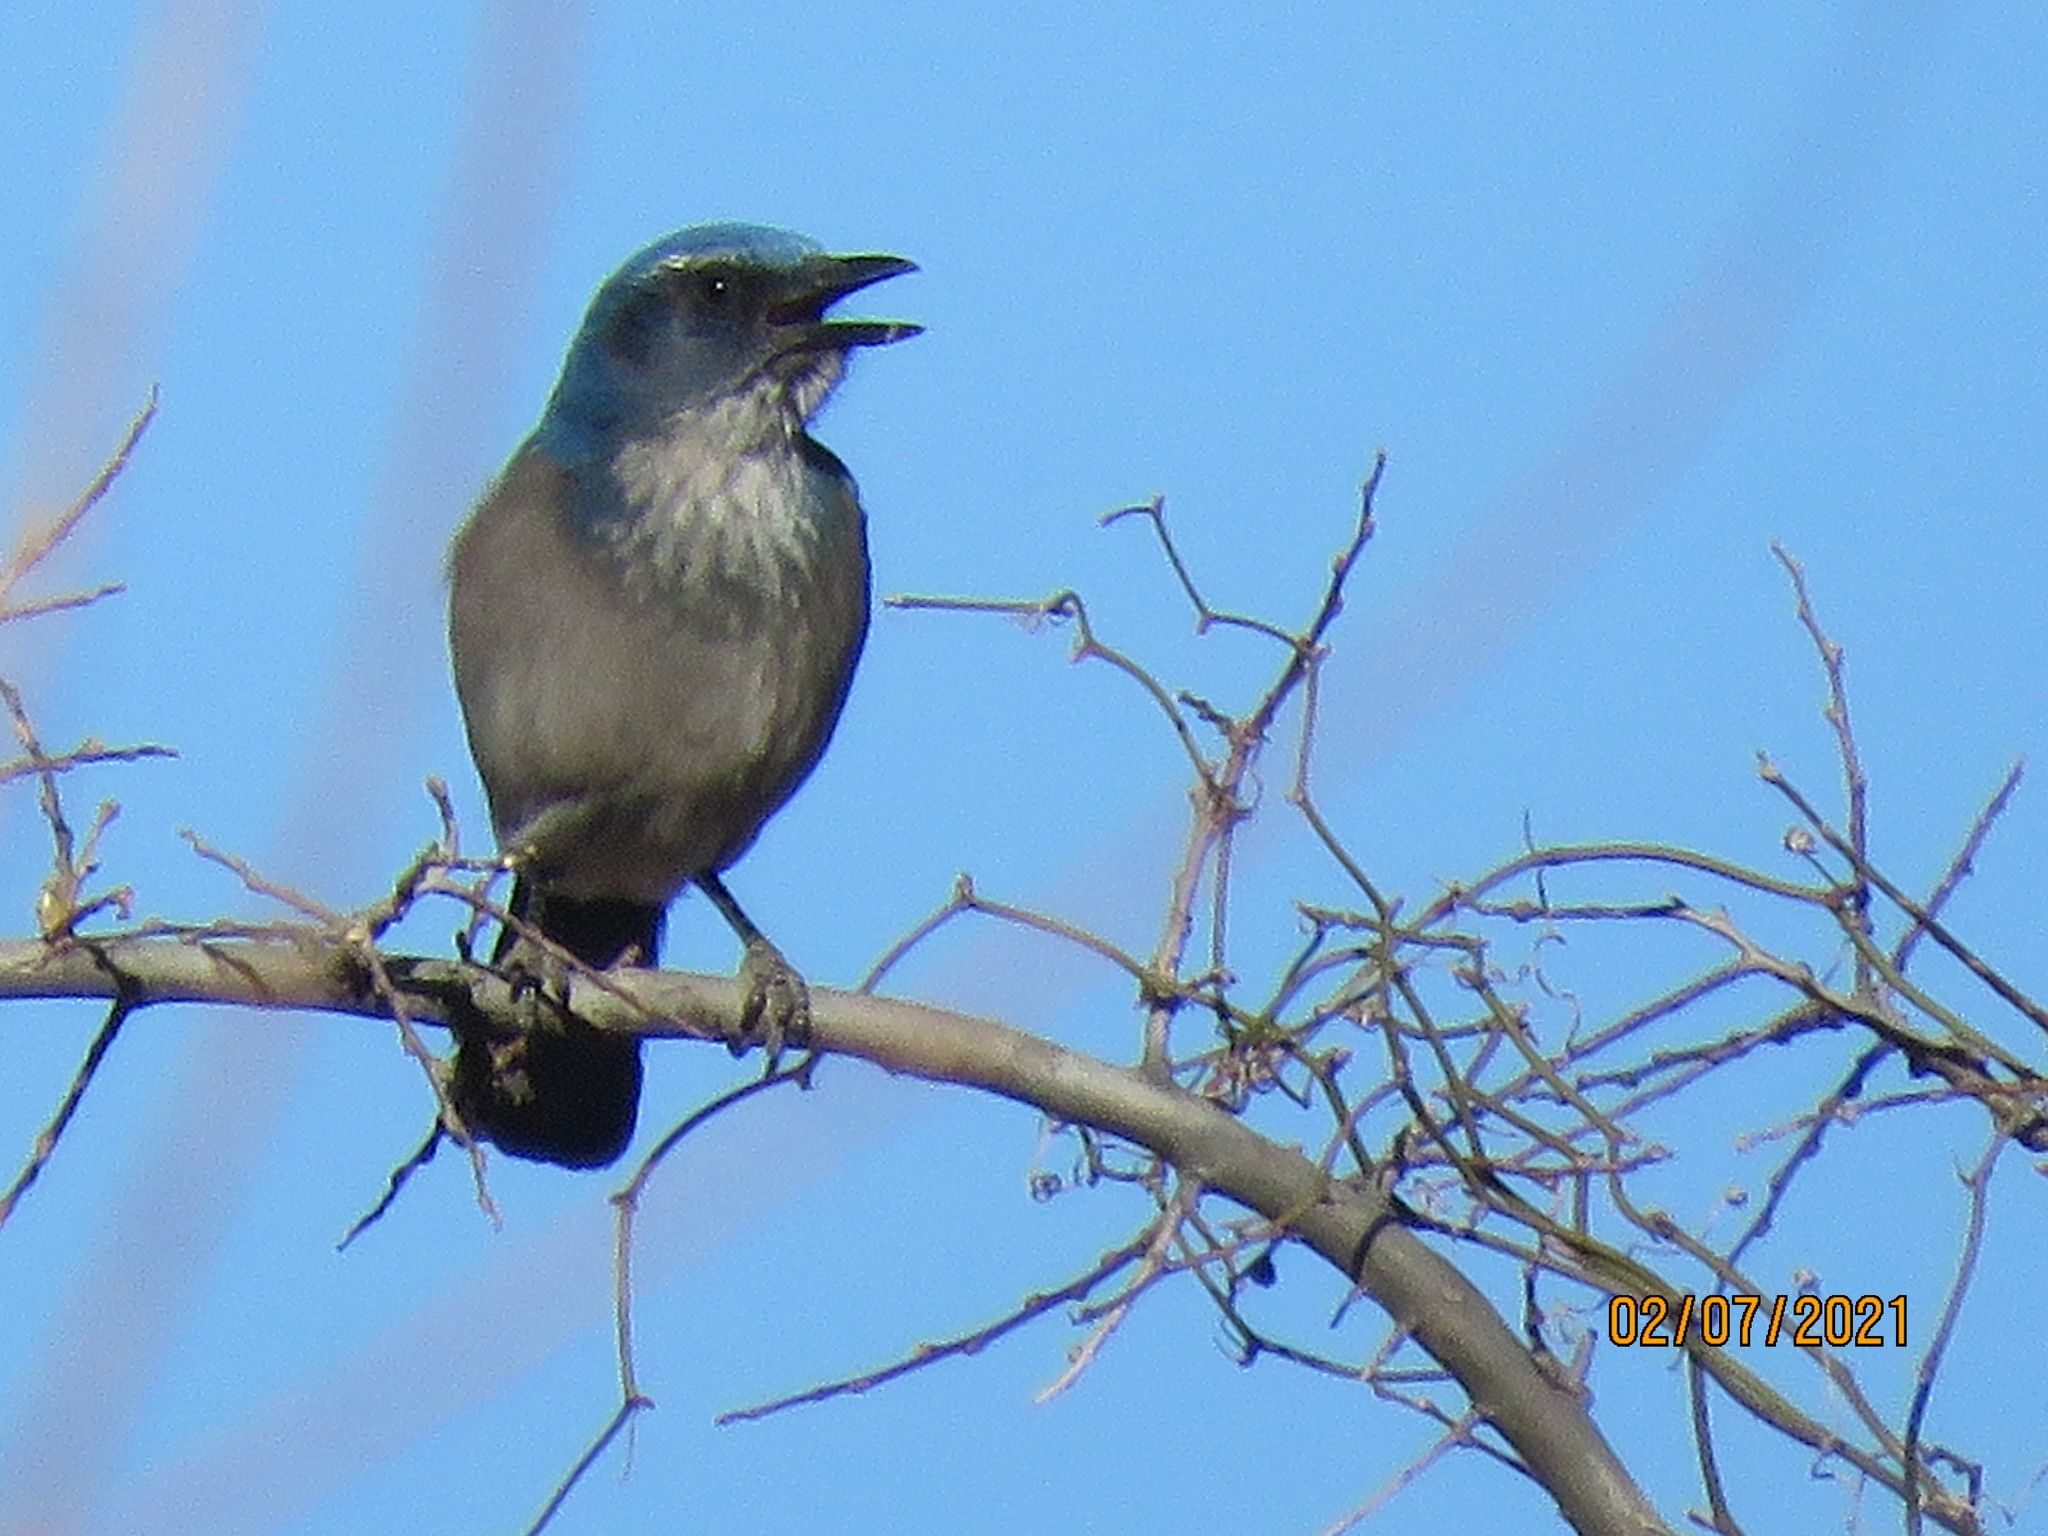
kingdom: Animalia
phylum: Chordata
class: Aves
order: Passeriformes
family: Corvidae
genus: Aphelocoma
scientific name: Aphelocoma woodhouseii
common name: Woodhouse's scrub-jay
